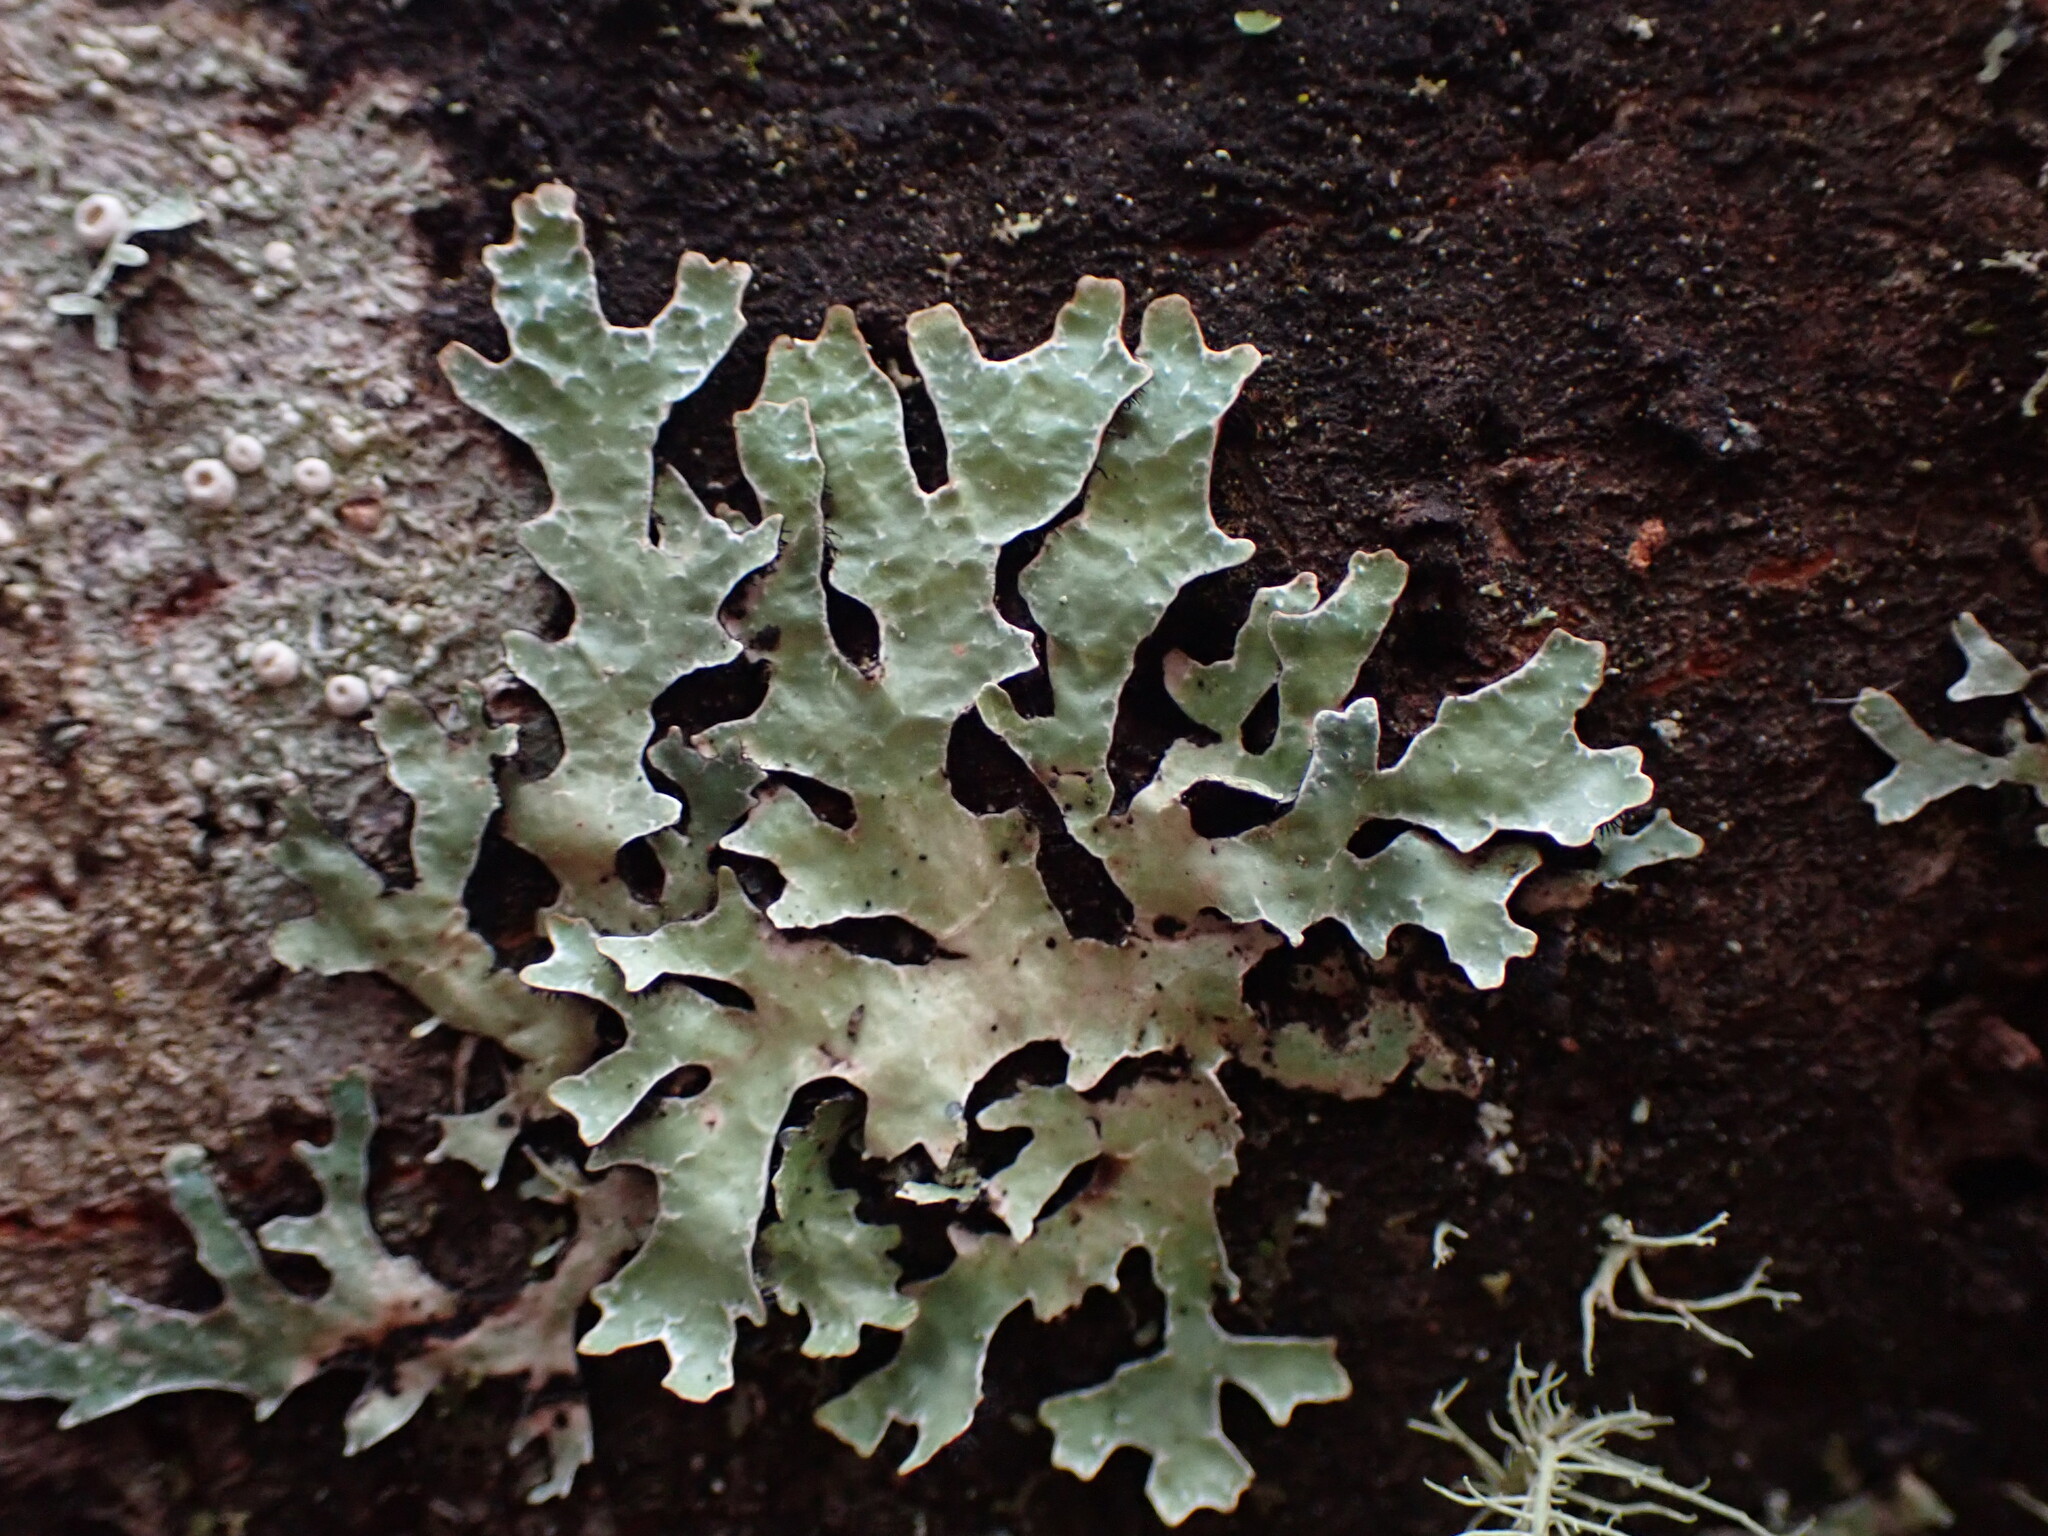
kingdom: Fungi
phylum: Ascomycota
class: Lecanoromycetes
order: Lecanorales
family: Parmeliaceae
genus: Parmelia
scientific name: Parmelia sulcata
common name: Netted shield lichen
